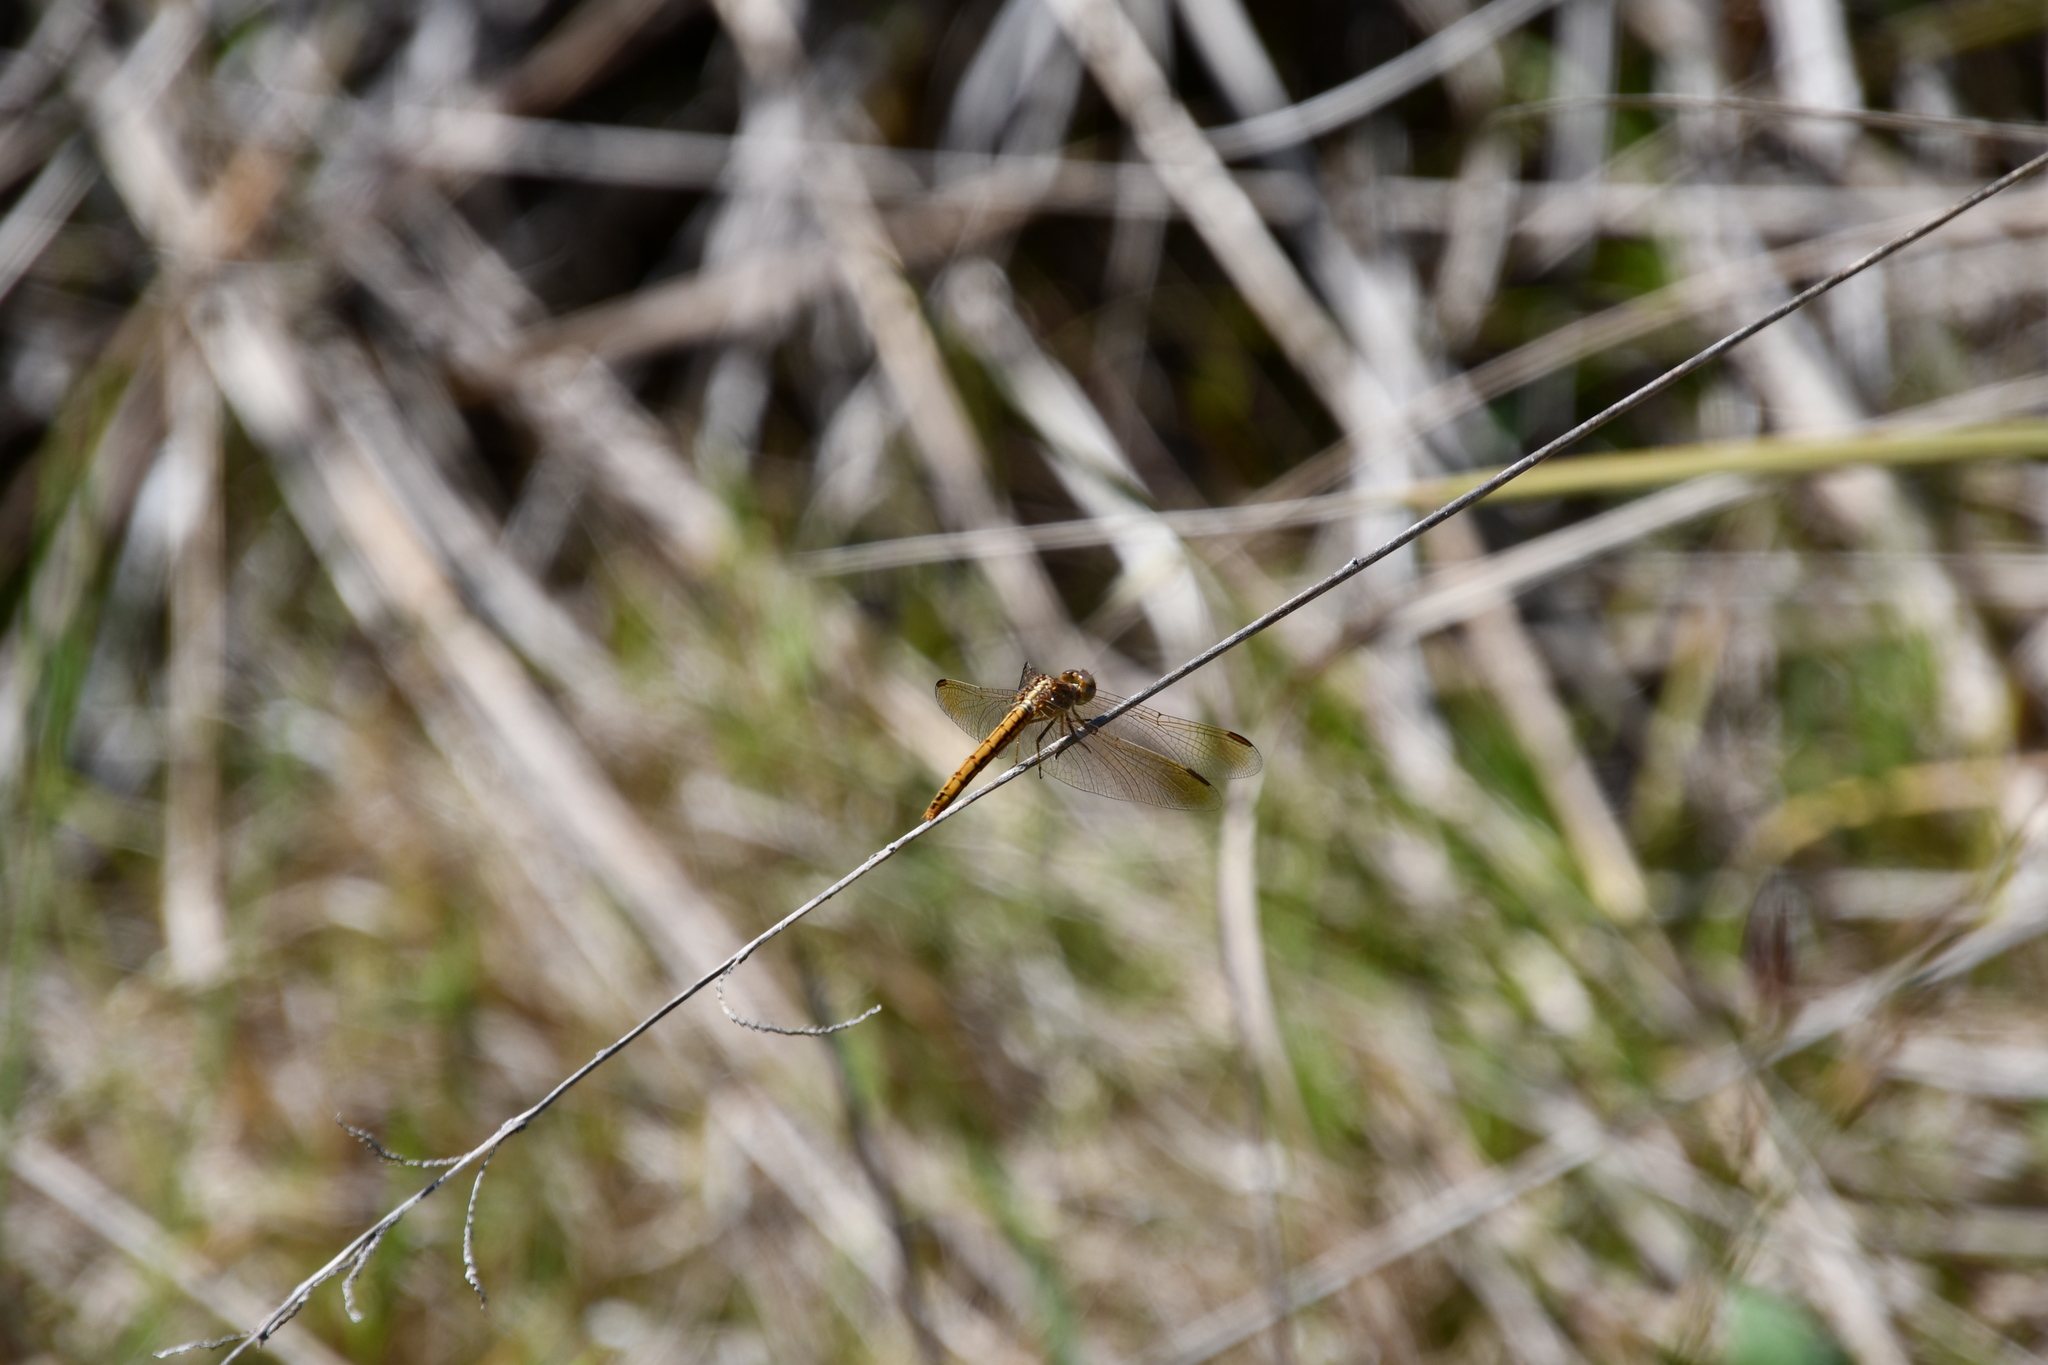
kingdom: Animalia
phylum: Arthropoda
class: Insecta
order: Odonata
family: Libellulidae
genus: Diplacodes
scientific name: Diplacodes haematodes
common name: Scarlet percher
